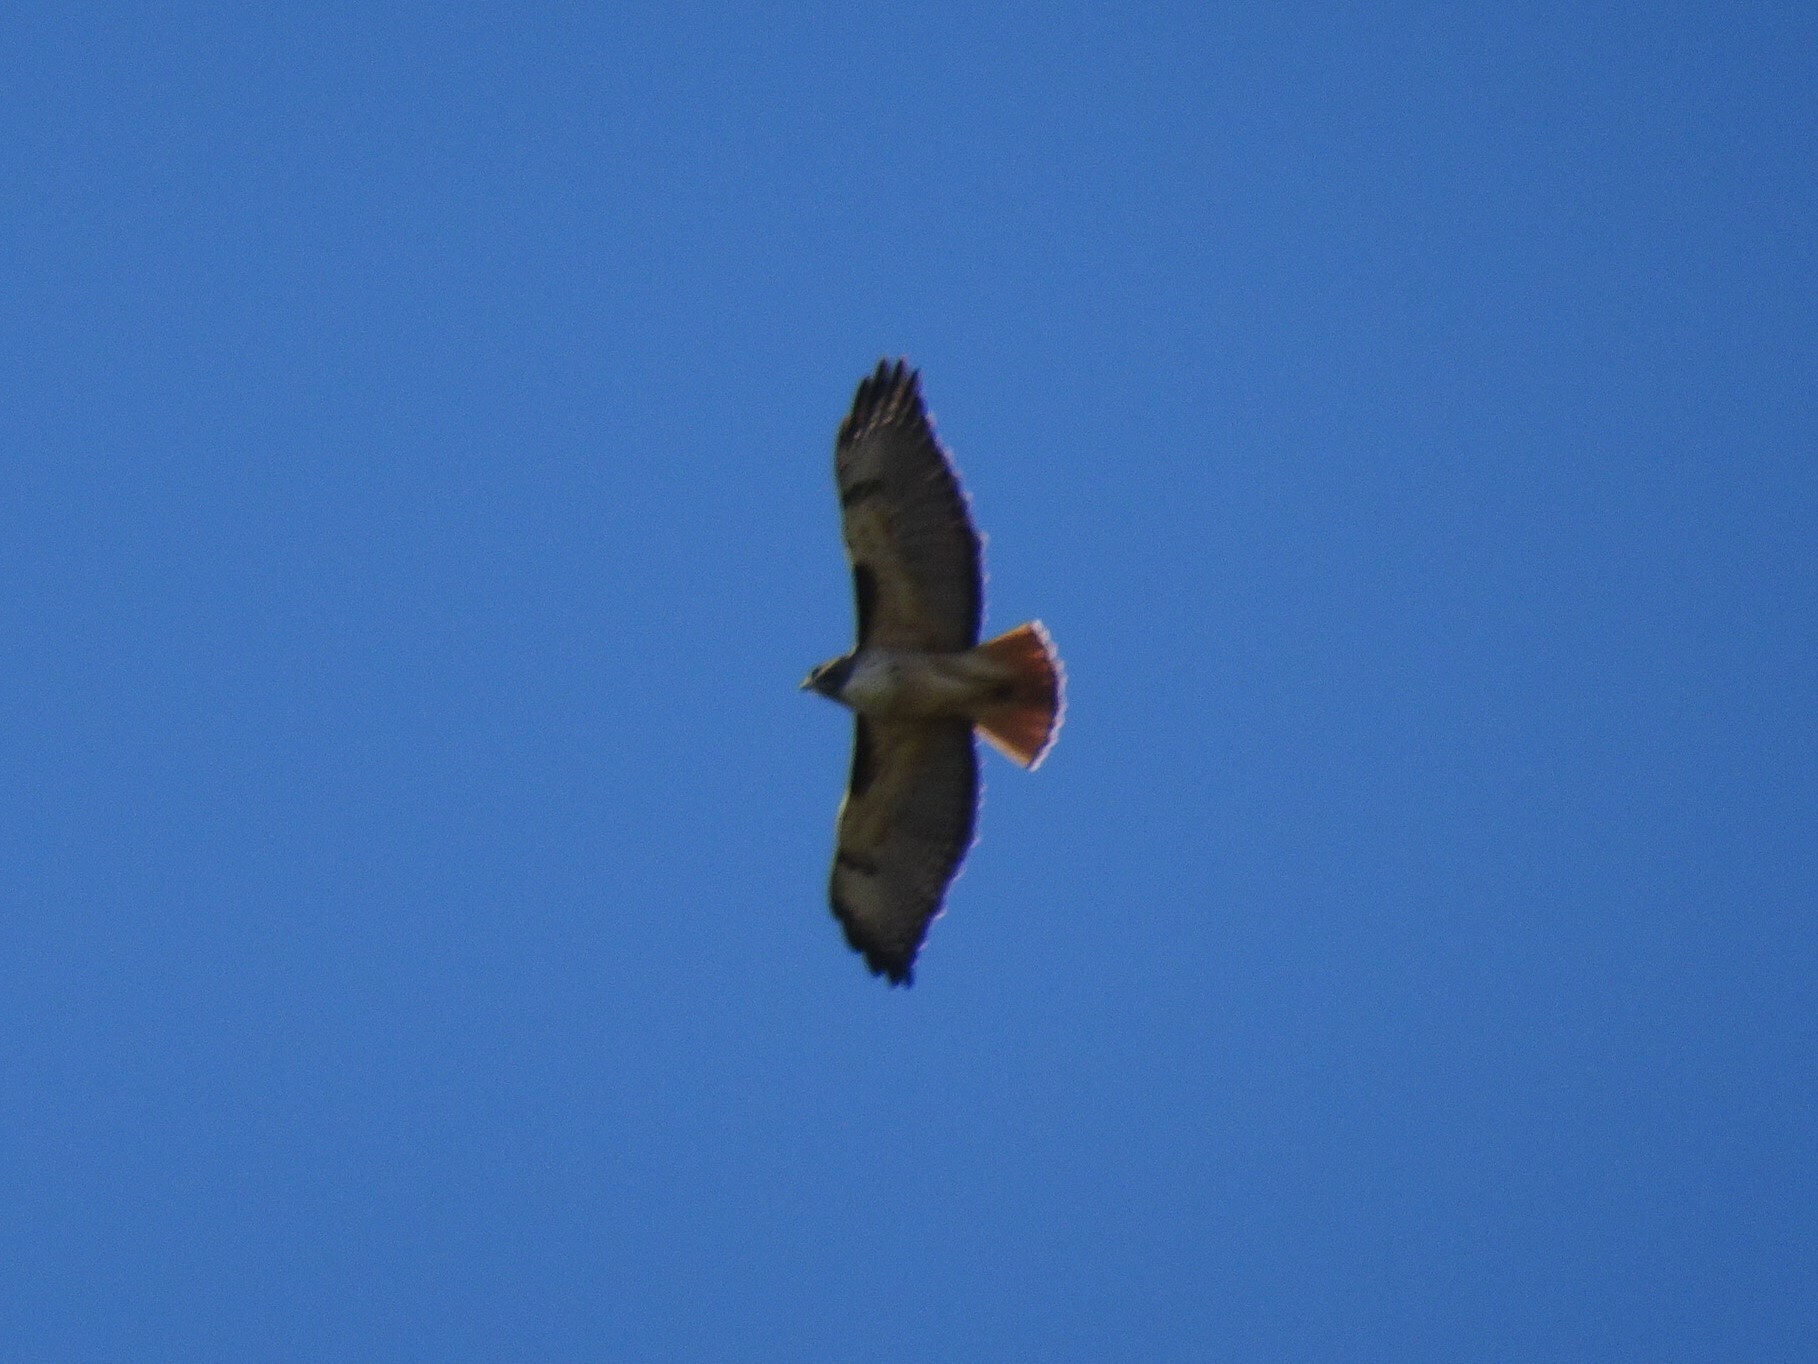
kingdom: Animalia
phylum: Chordata
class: Aves
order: Accipitriformes
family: Accipitridae
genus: Buteo
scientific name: Buteo jamaicensis
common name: Red-tailed hawk
